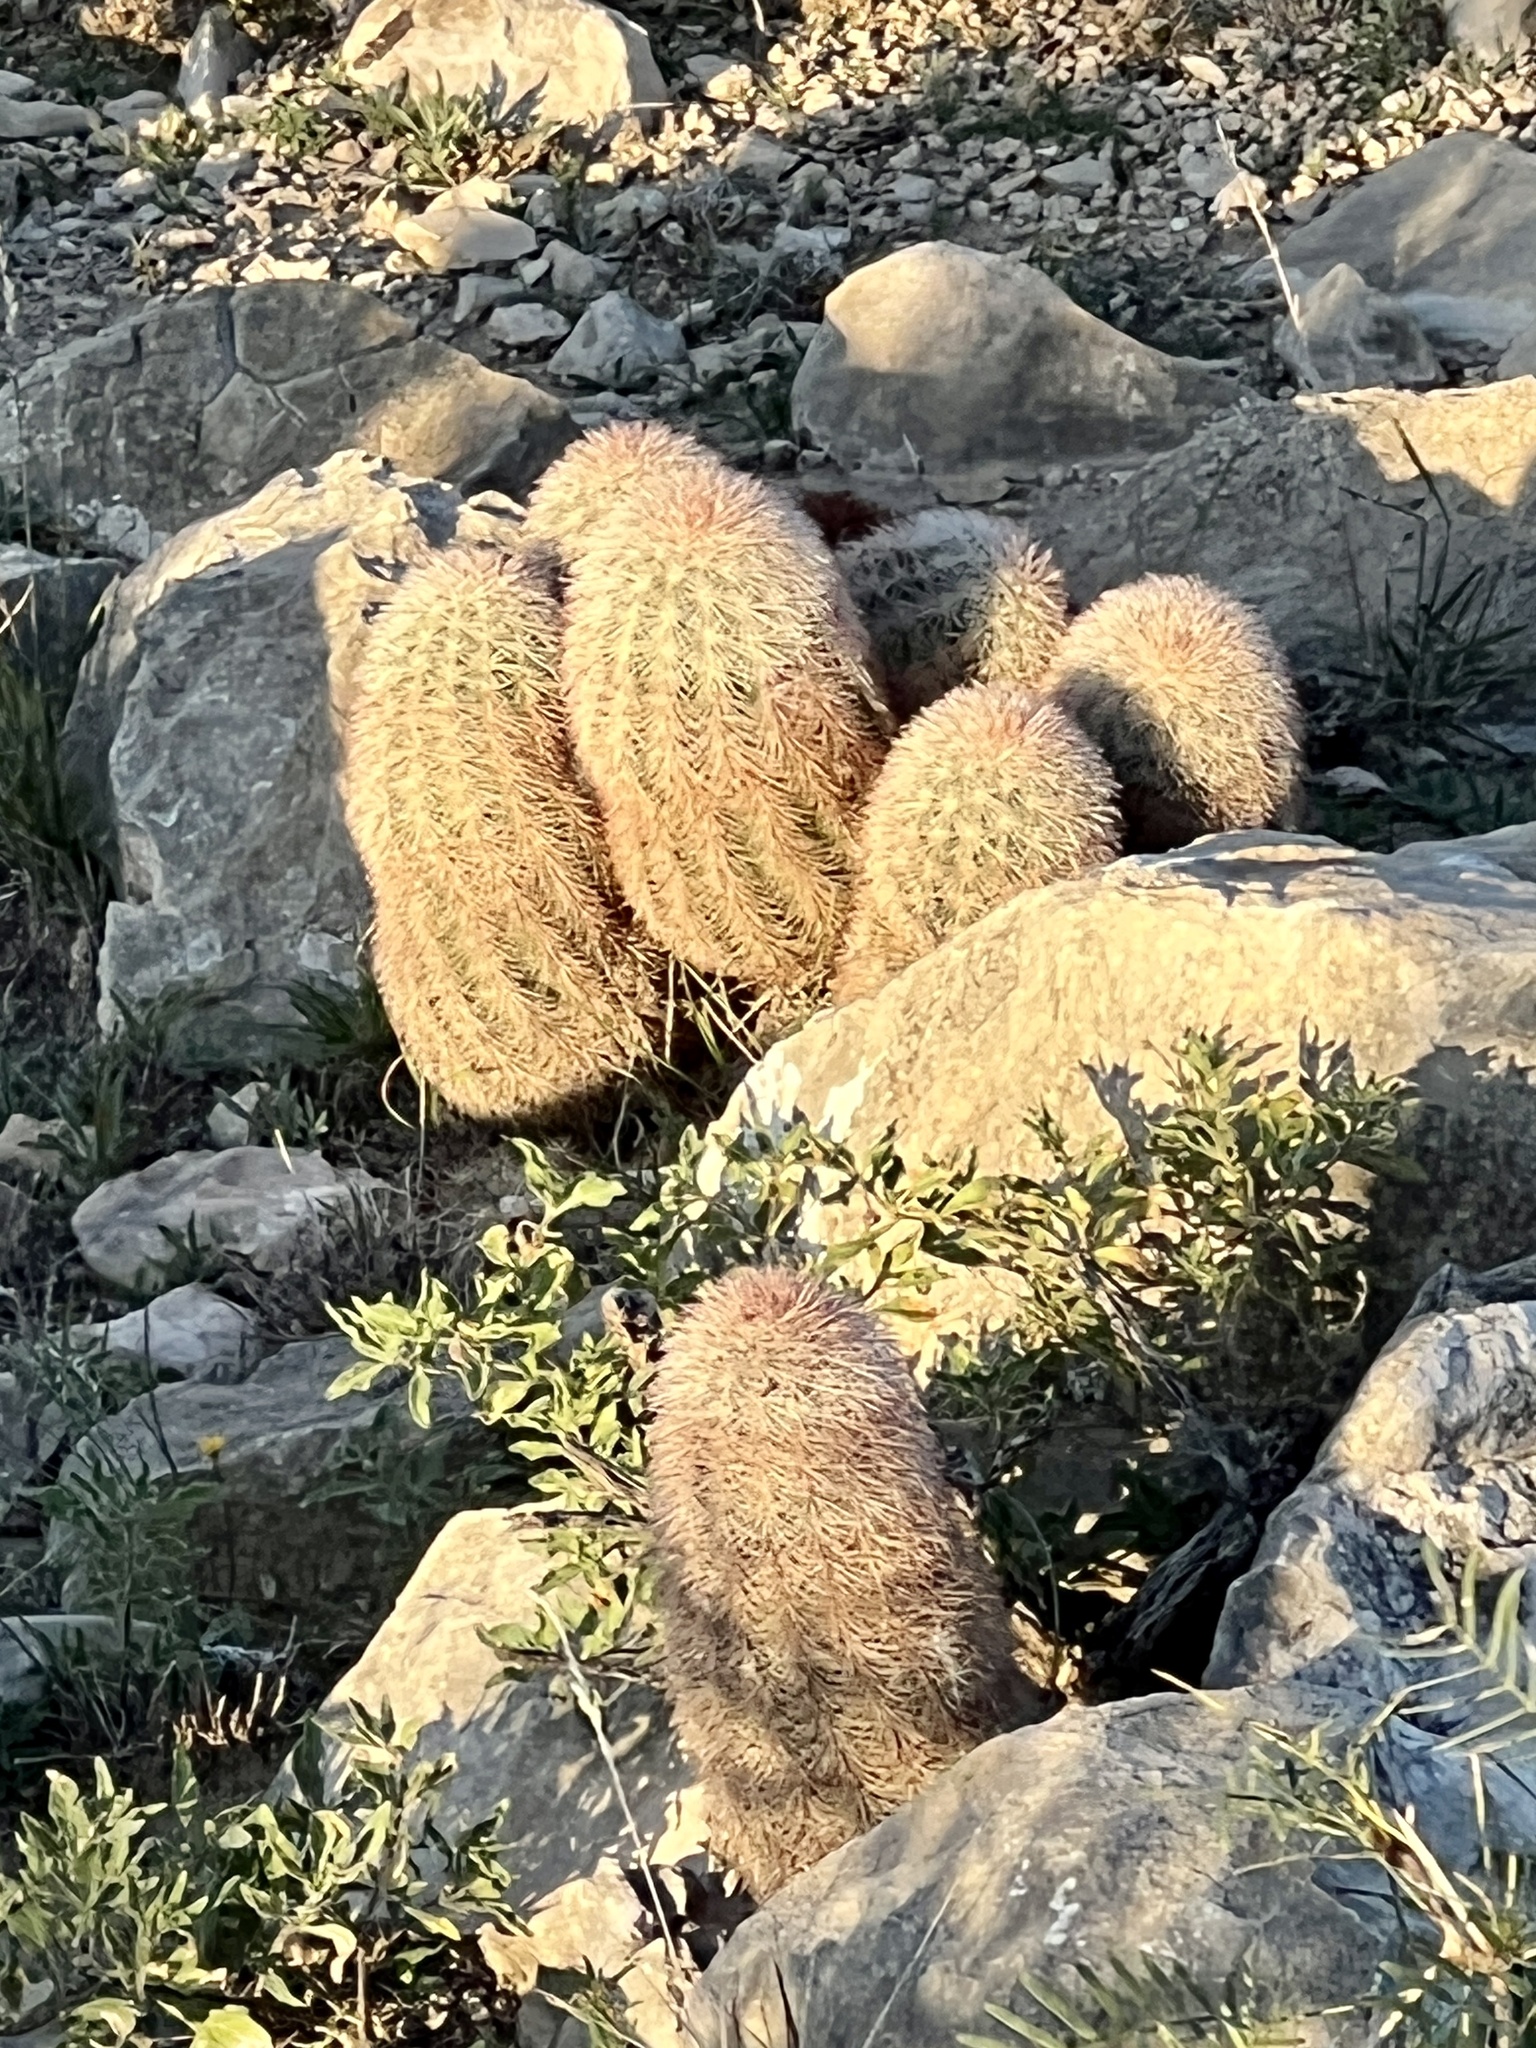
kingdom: Plantae
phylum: Tracheophyta
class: Magnoliopsida
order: Caryophyllales
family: Cactaceae
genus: Echinocereus
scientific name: Echinocereus dasyacanthus
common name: Spiny hedgehog cactus
